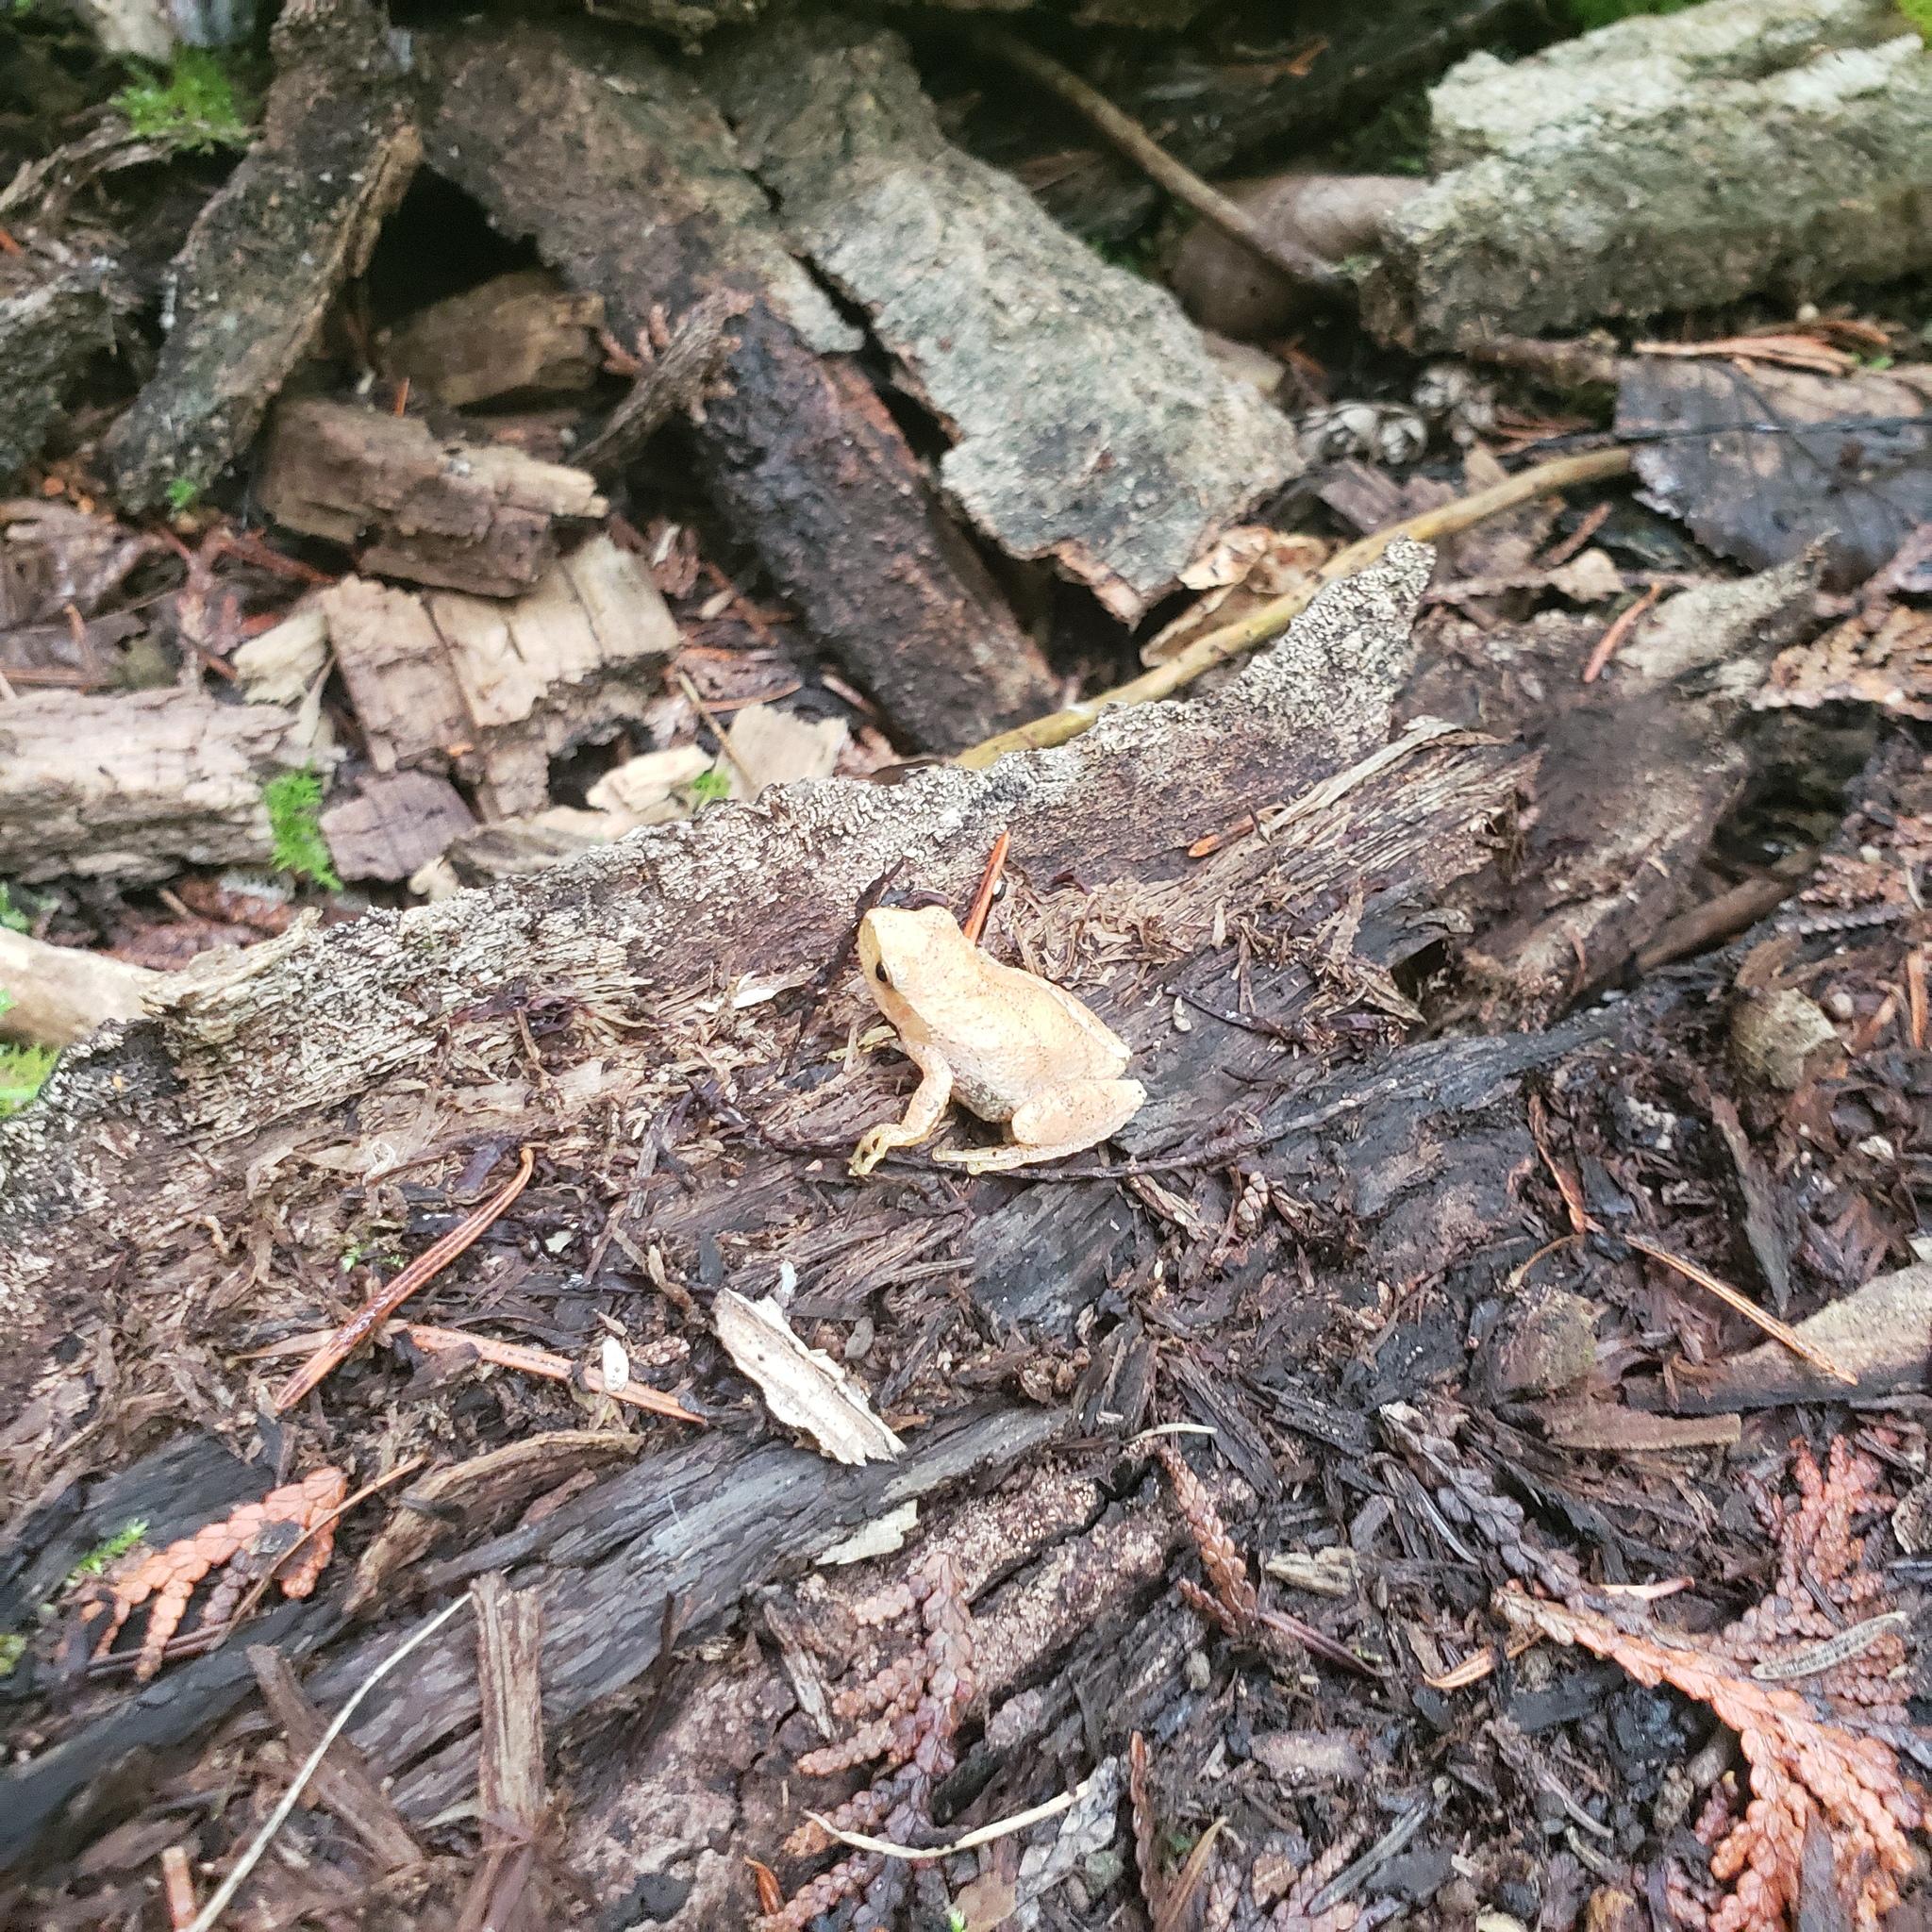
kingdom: Animalia
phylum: Chordata
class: Amphibia
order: Anura
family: Hylidae
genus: Pseudacris
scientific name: Pseudacris crucifer
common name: Spring peeper
